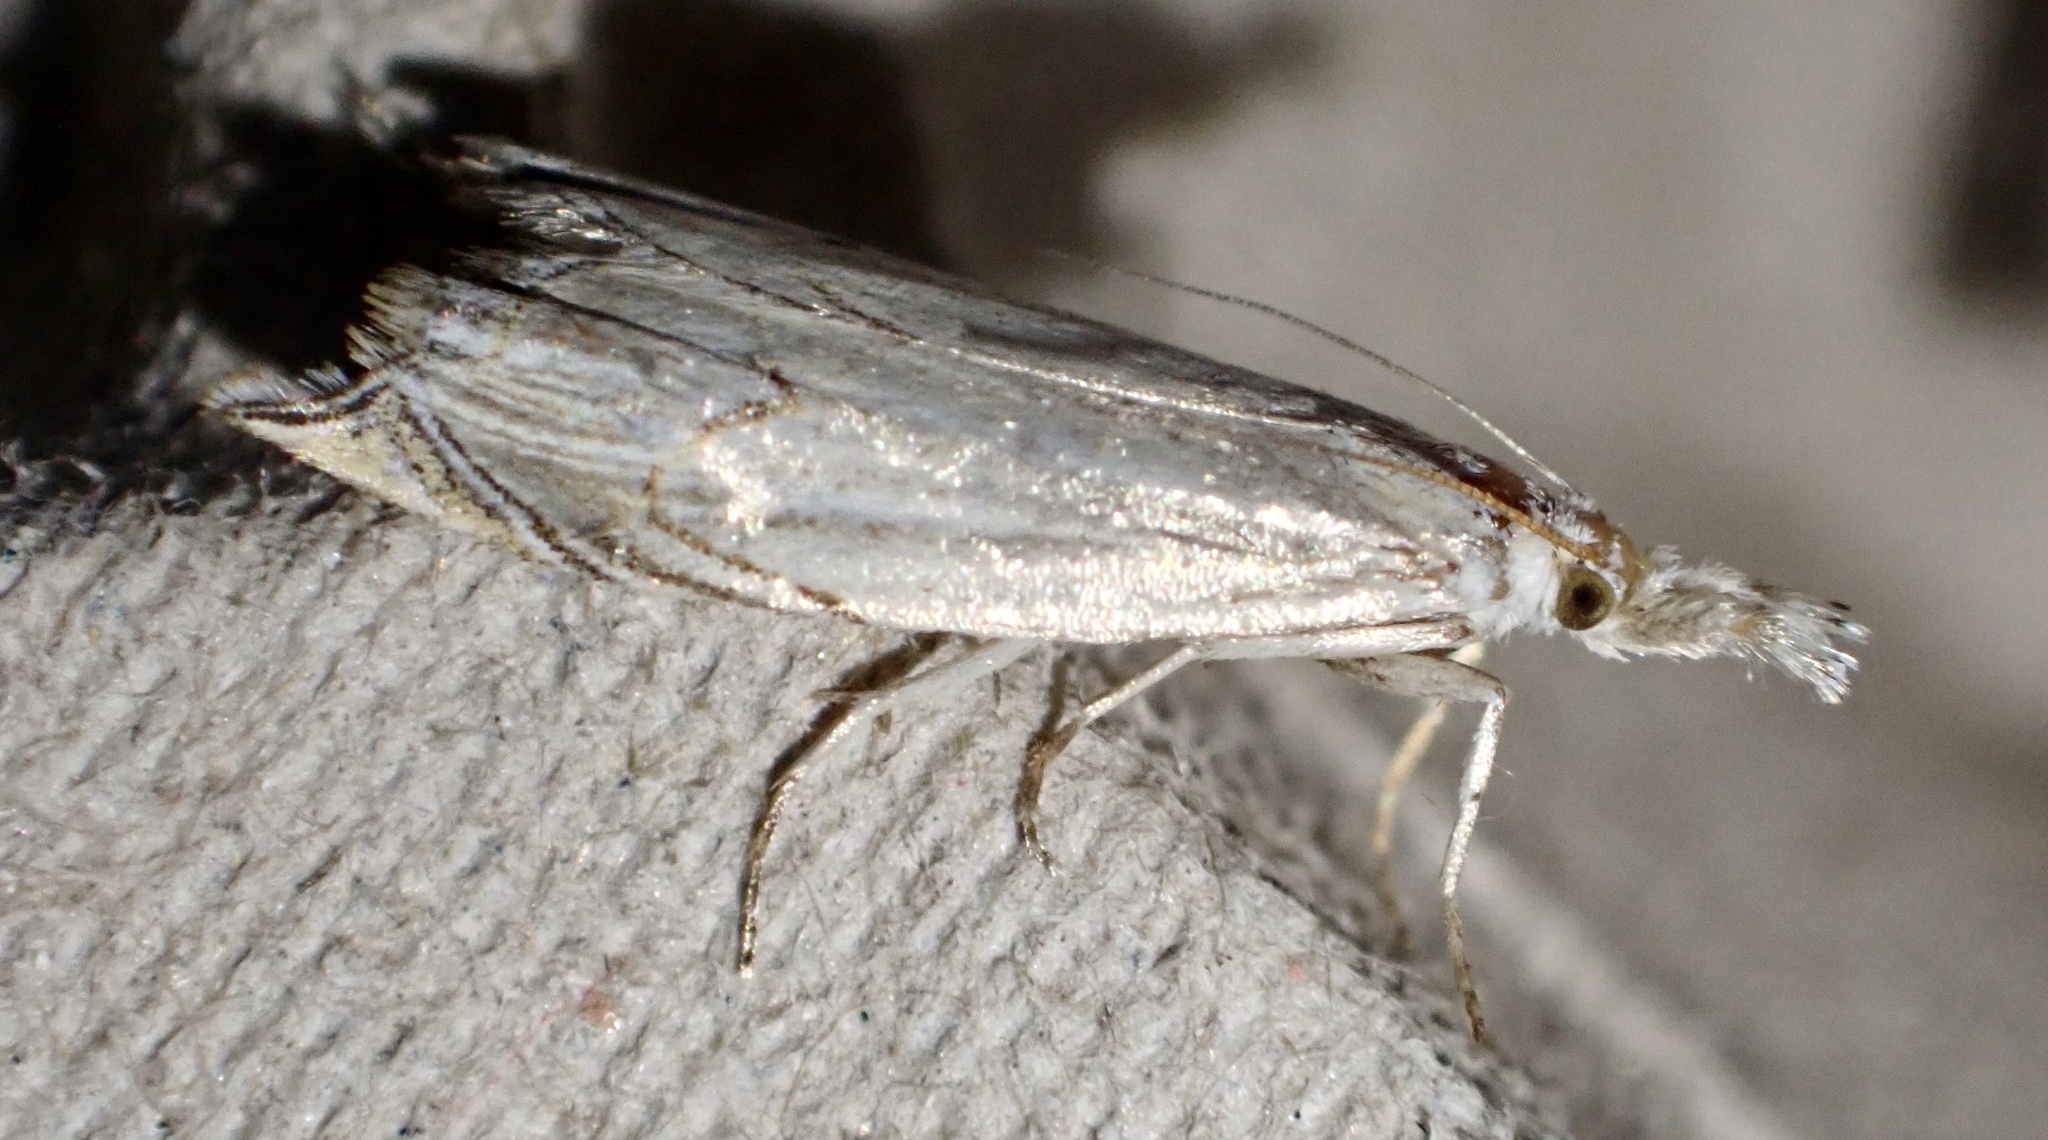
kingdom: Animalia
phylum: Arthropoda
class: Insecta
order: Lepidoptera
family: Crambidae
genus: Metacrambus
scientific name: Metacrambus carectellus
